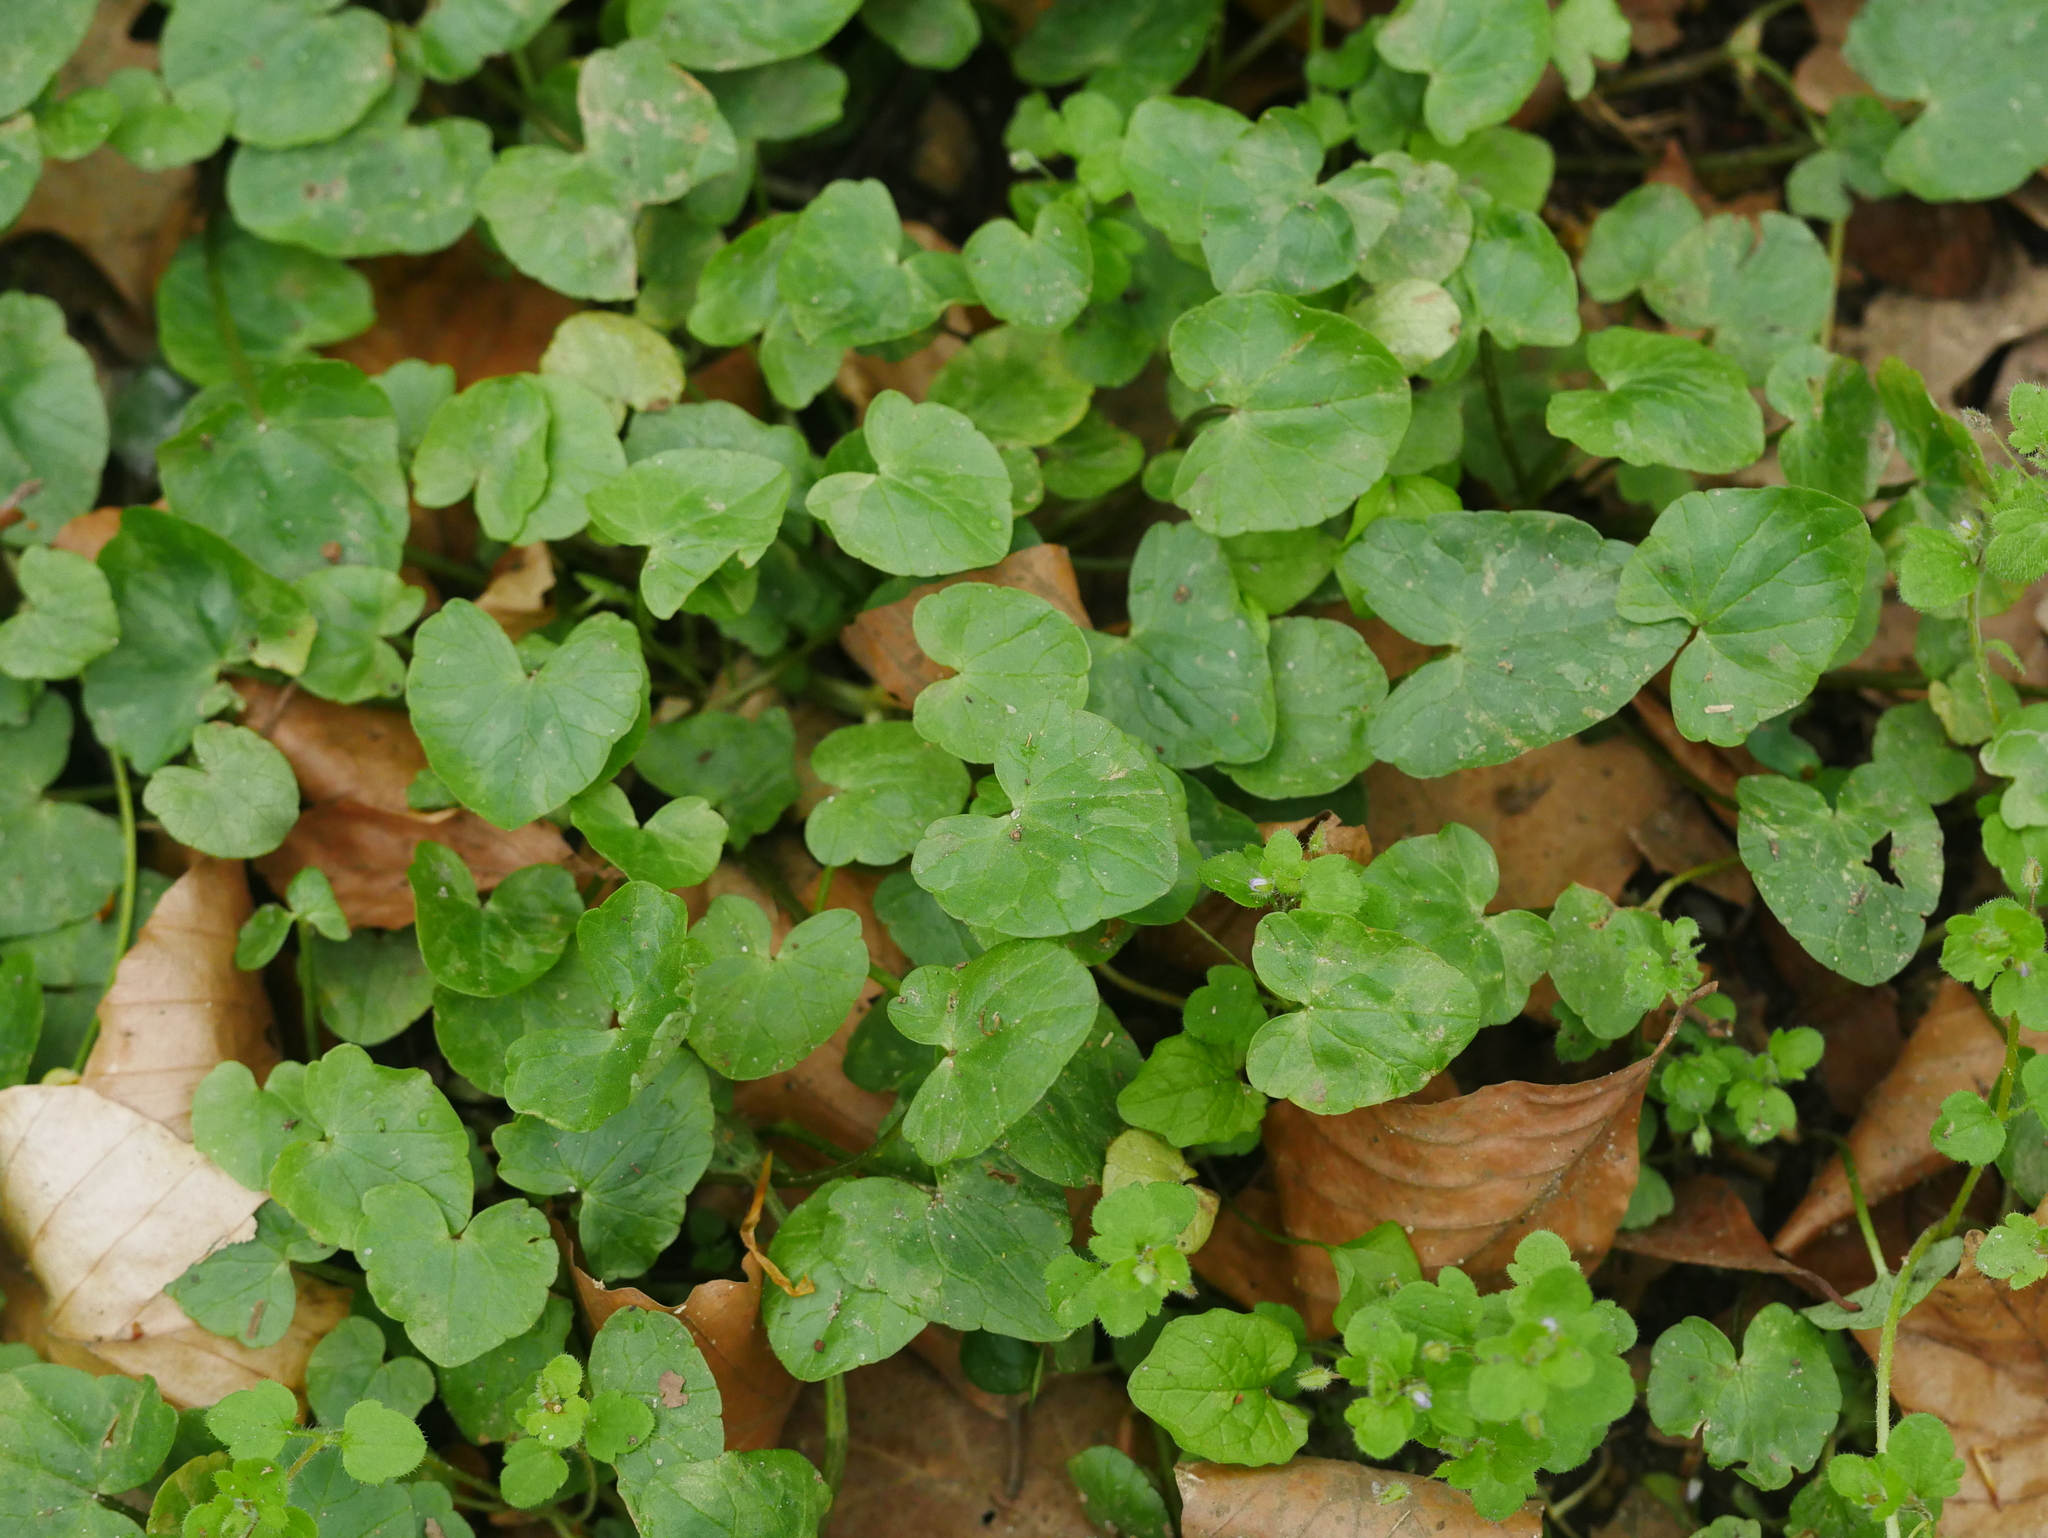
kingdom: Plantae
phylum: Tracheophyta
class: Magnoliopsida
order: Ranunculales
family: Ranunculaceae
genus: Ficaria
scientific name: Ficaria verna
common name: Lesser celandine
